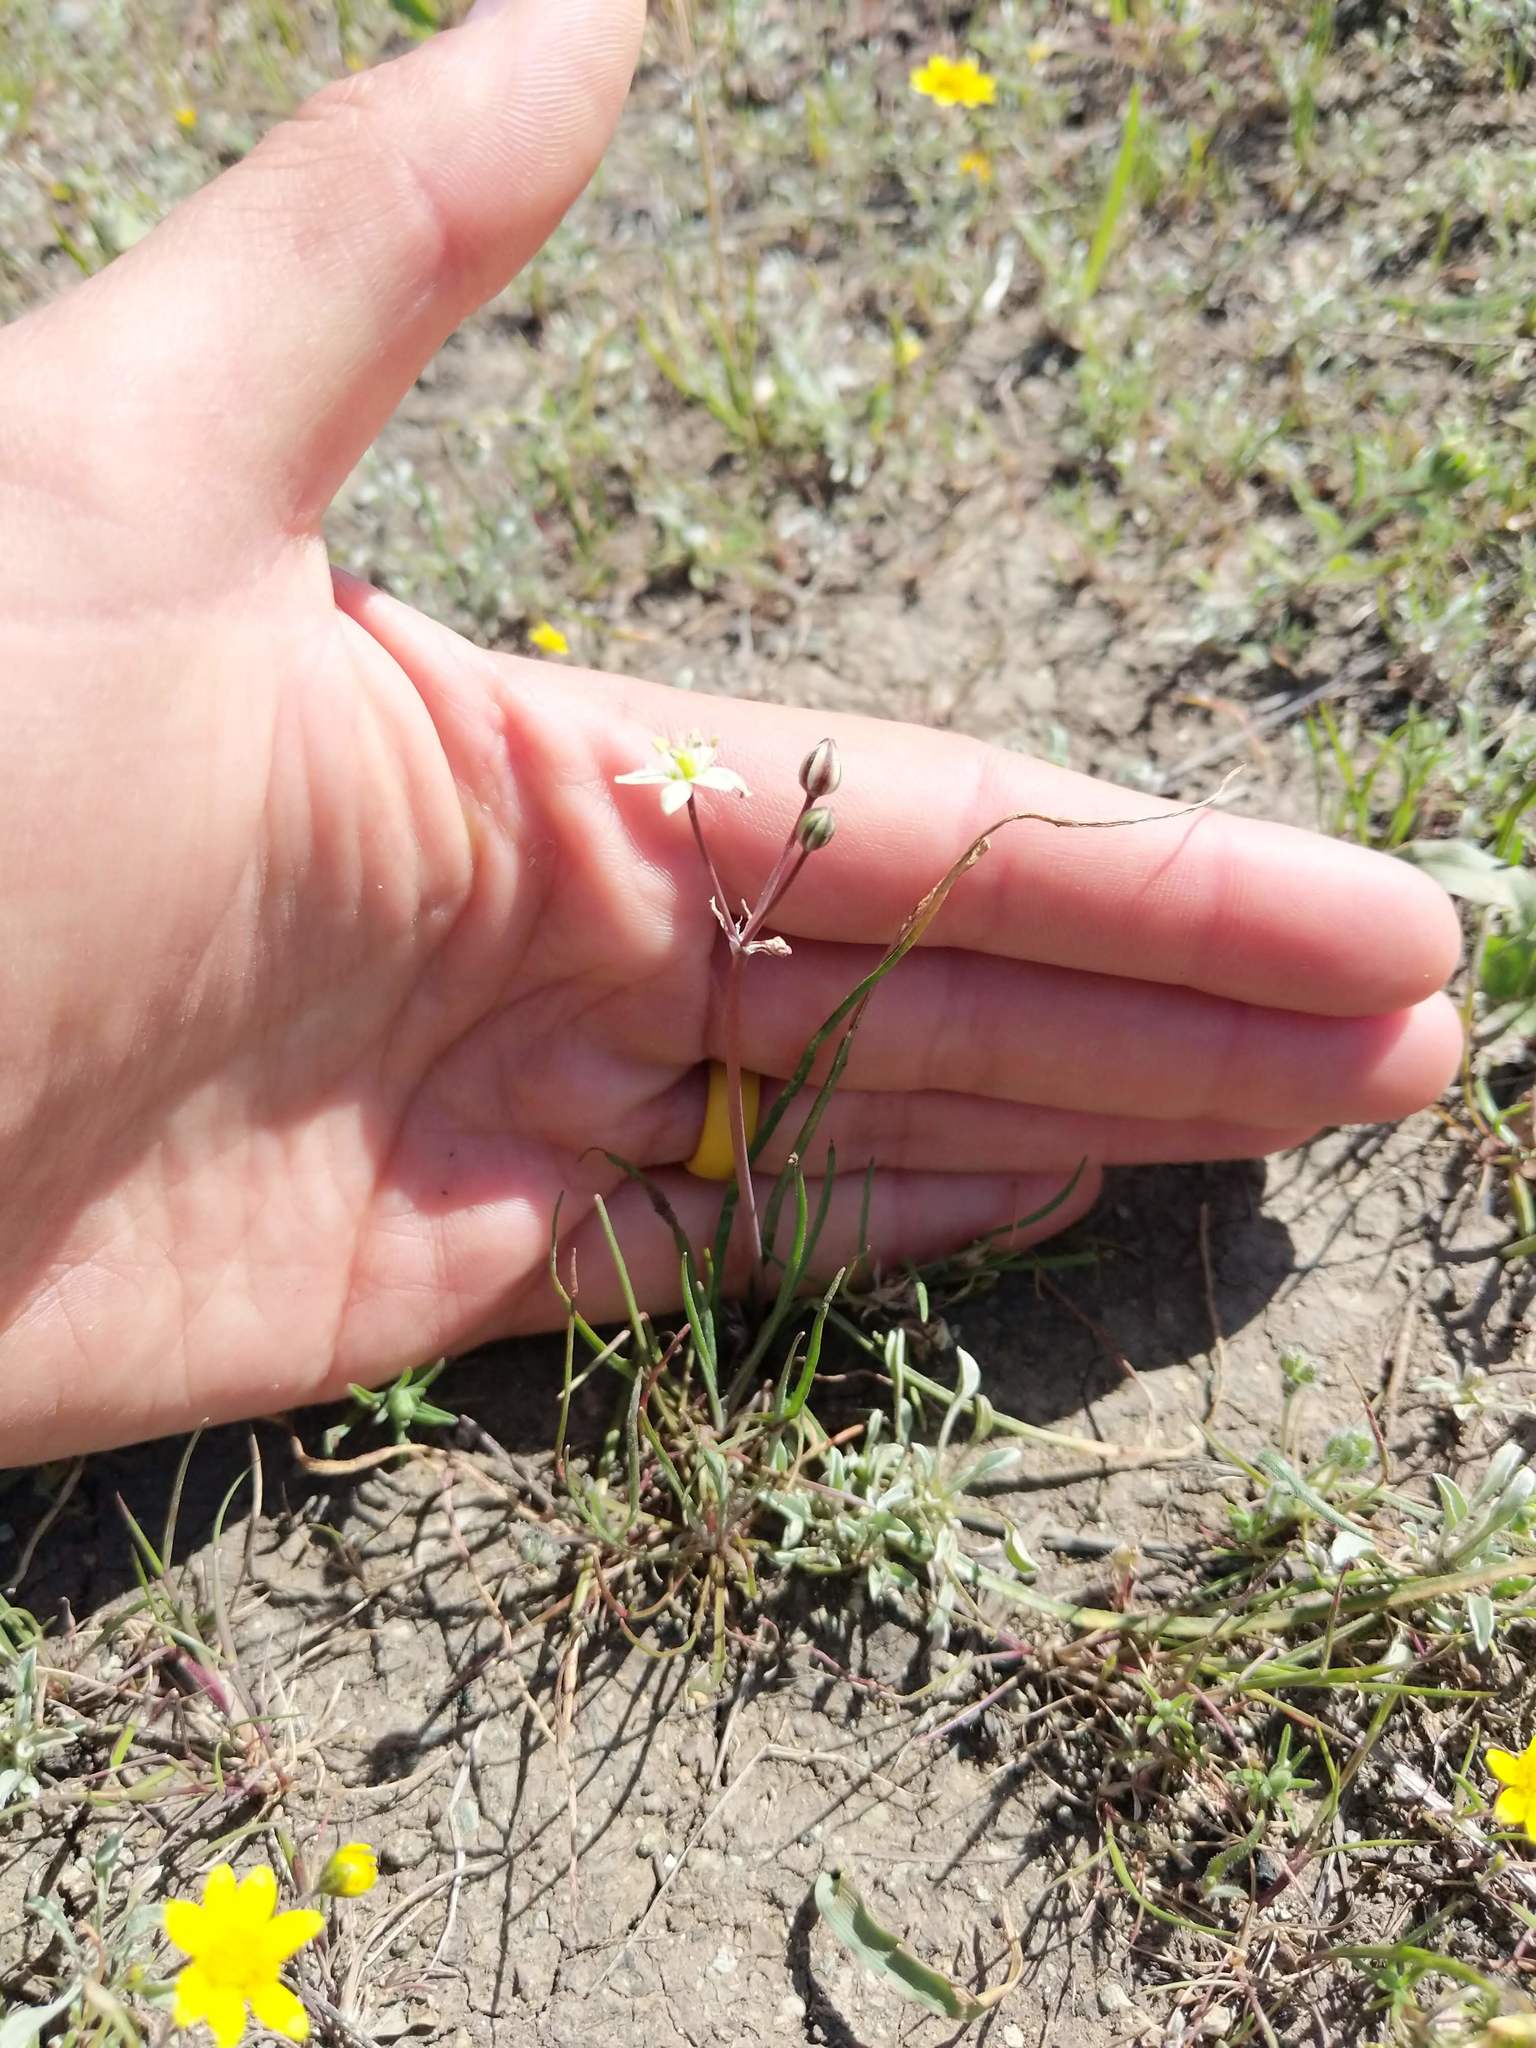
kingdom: Plantae
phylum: Tracheophyta
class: Liliopsida
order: Asparagales
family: Asparagaceae
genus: Muilla
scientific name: Muilla maritima
